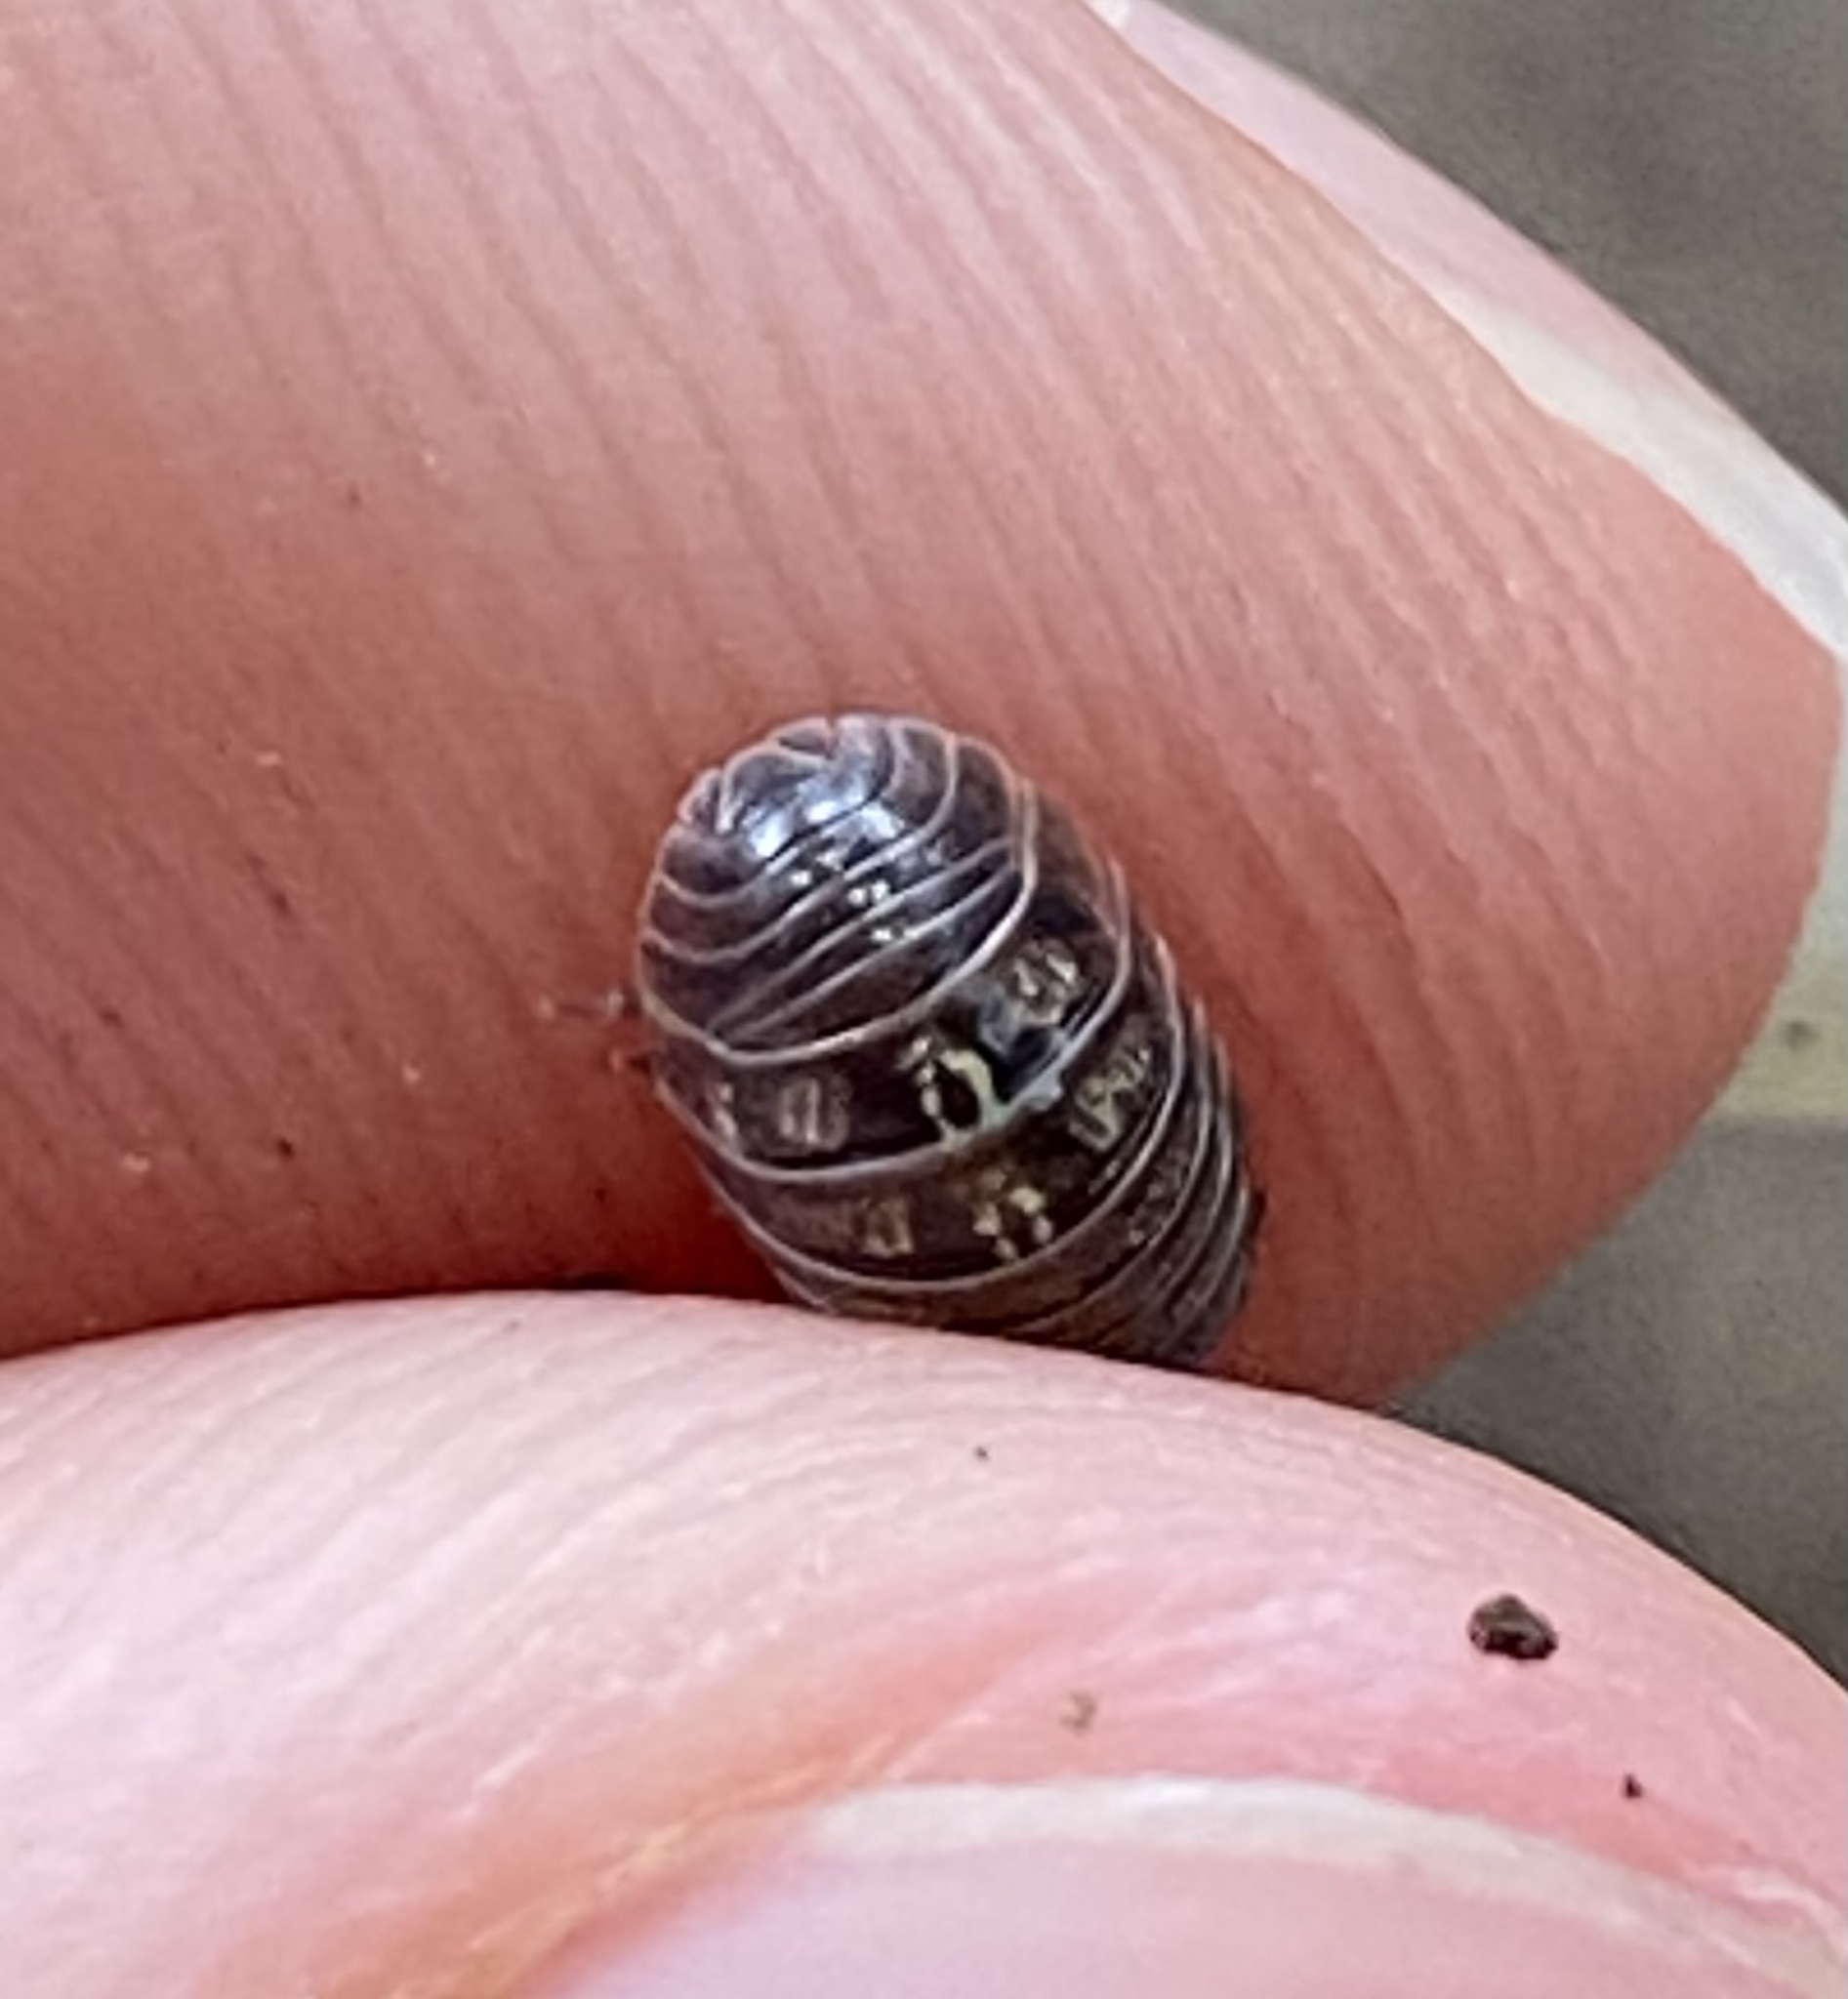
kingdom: Animalia
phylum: Arthropoda
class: Malacostraca
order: Isopoda
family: Armadillidiidae
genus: Armadillidium
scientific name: Armadillidium vulgare
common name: Common pill woodlouse
